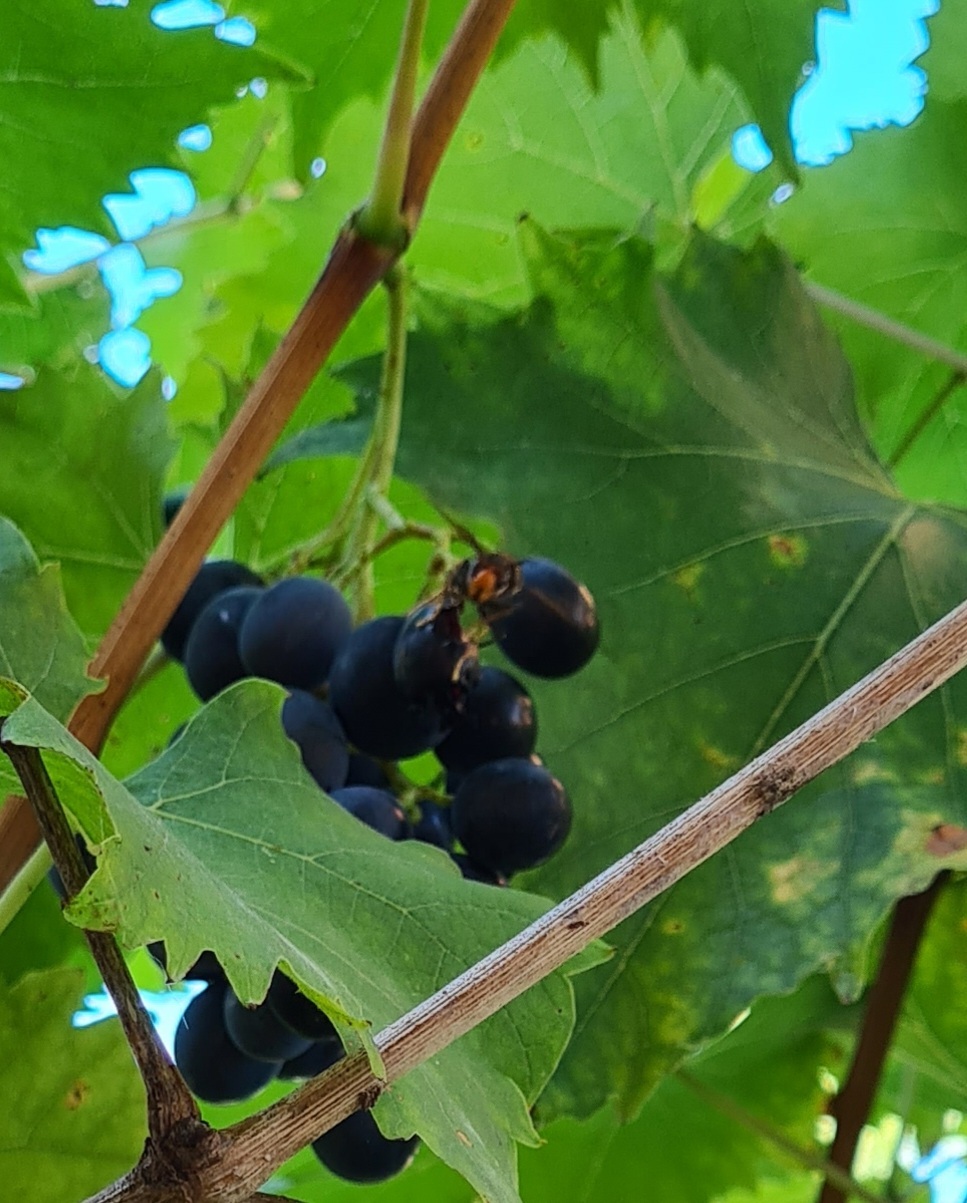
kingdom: Animalia
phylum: Arthropoda
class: Insecta
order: Hymenoptera
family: Vespidae
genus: Vespa
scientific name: Vespa velutina
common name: Asian hornet
